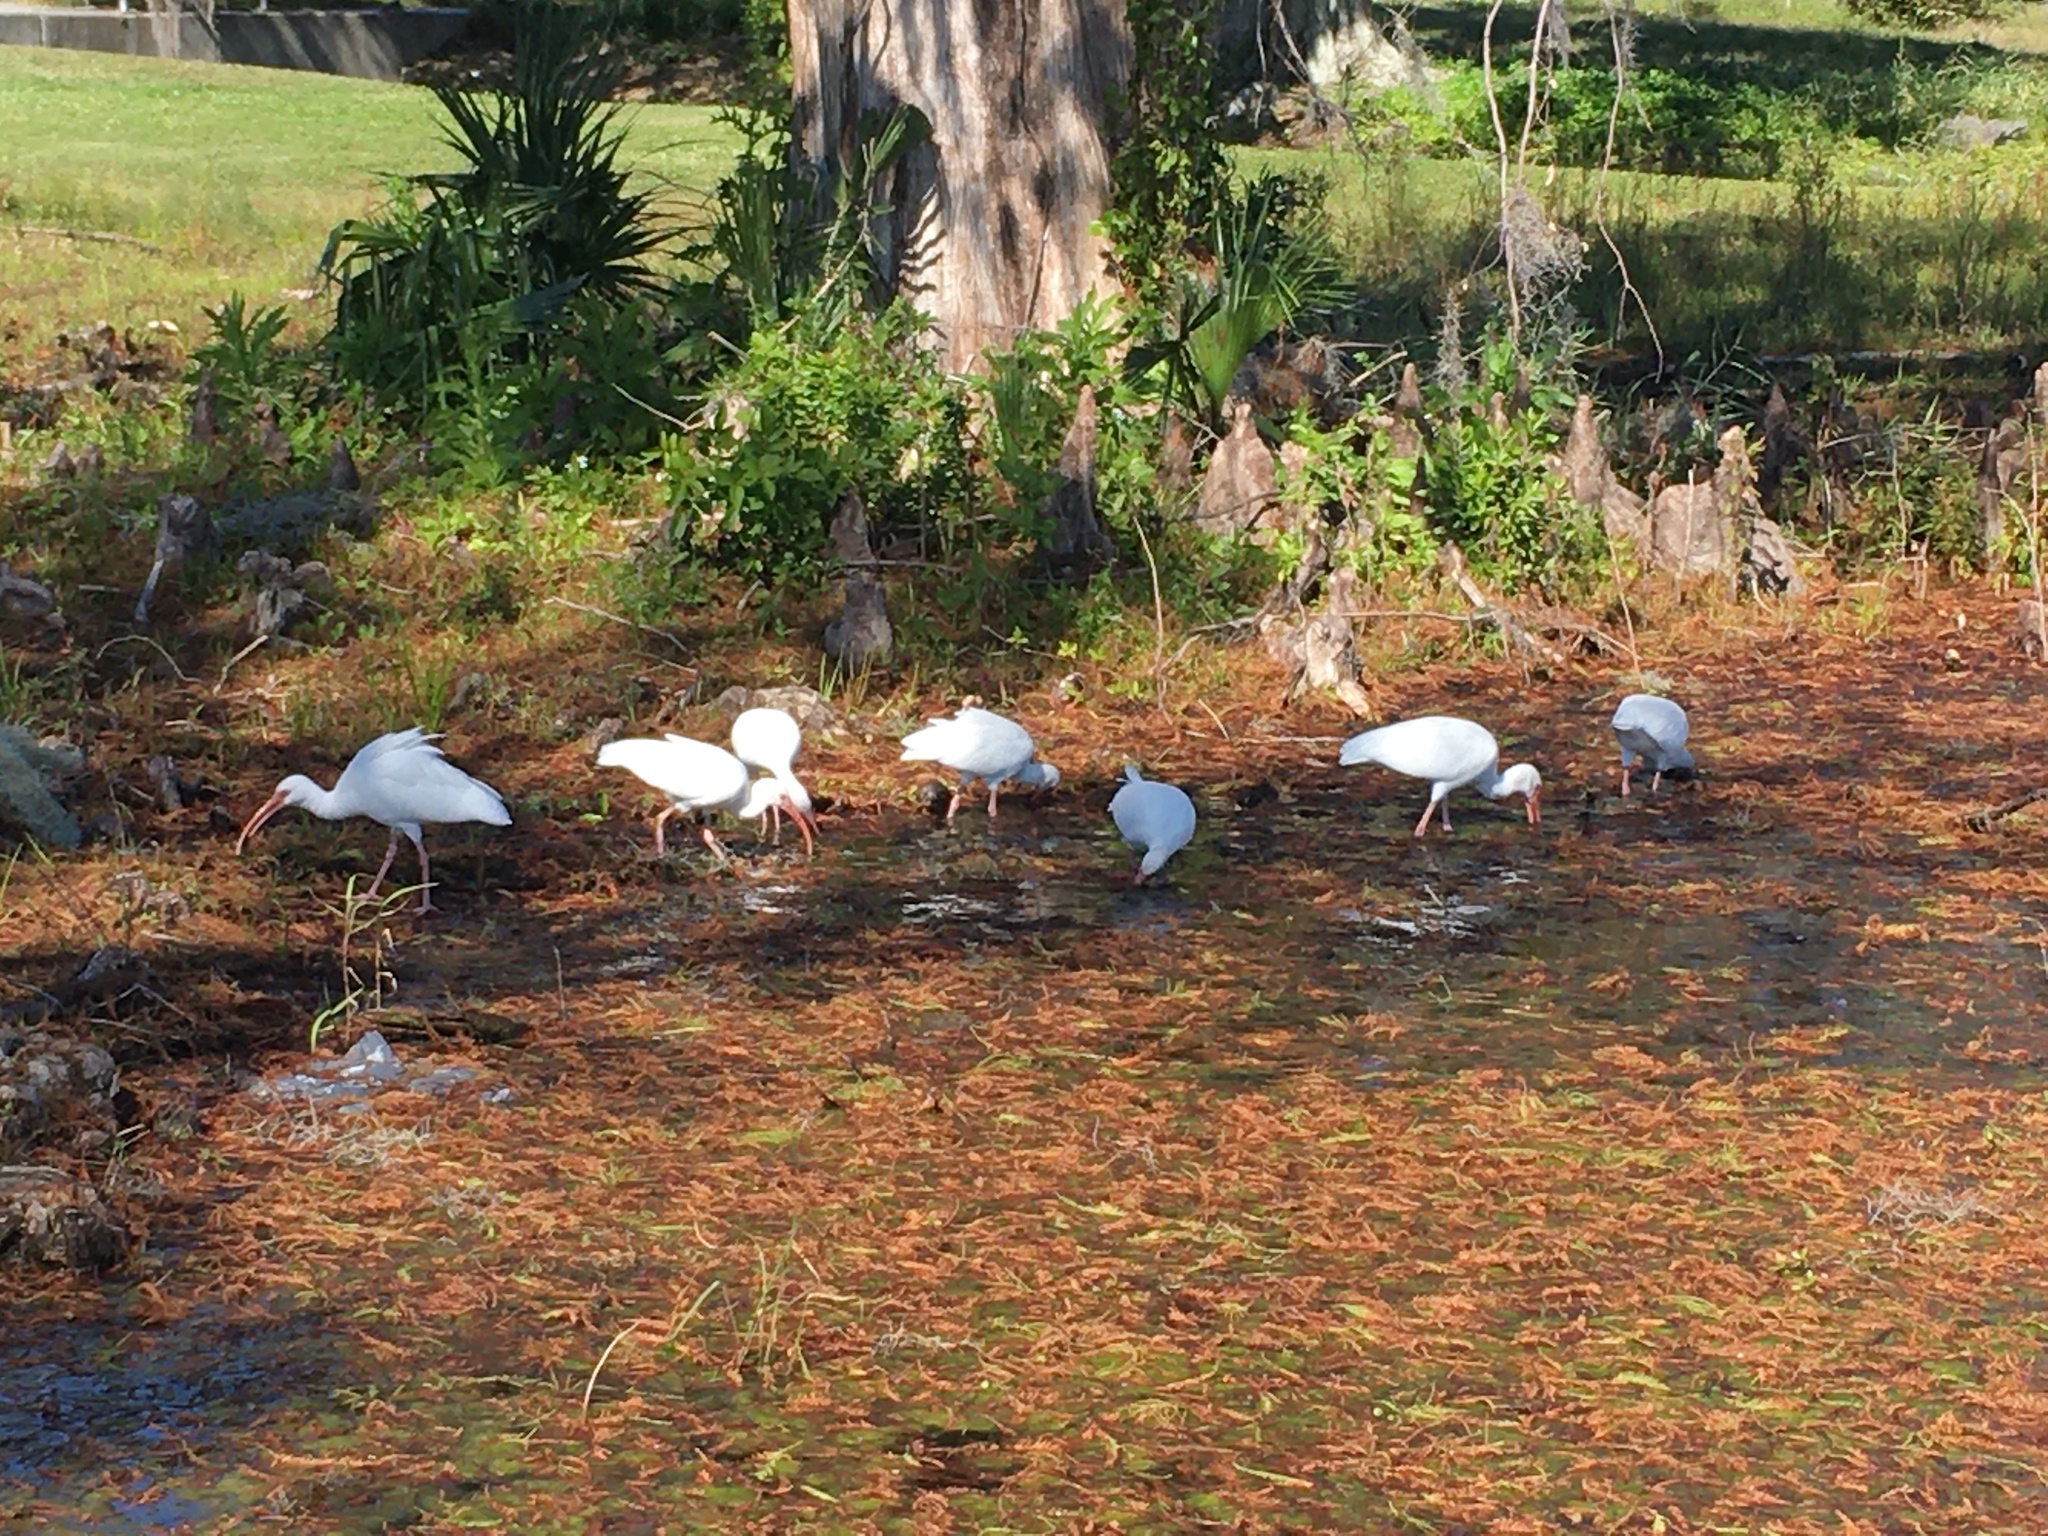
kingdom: Animalia
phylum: Chordata
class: Aves
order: Pelecaniformes
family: Threskiornithidae
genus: Eudocimus
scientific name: Eudocimus albus
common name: White ibis
